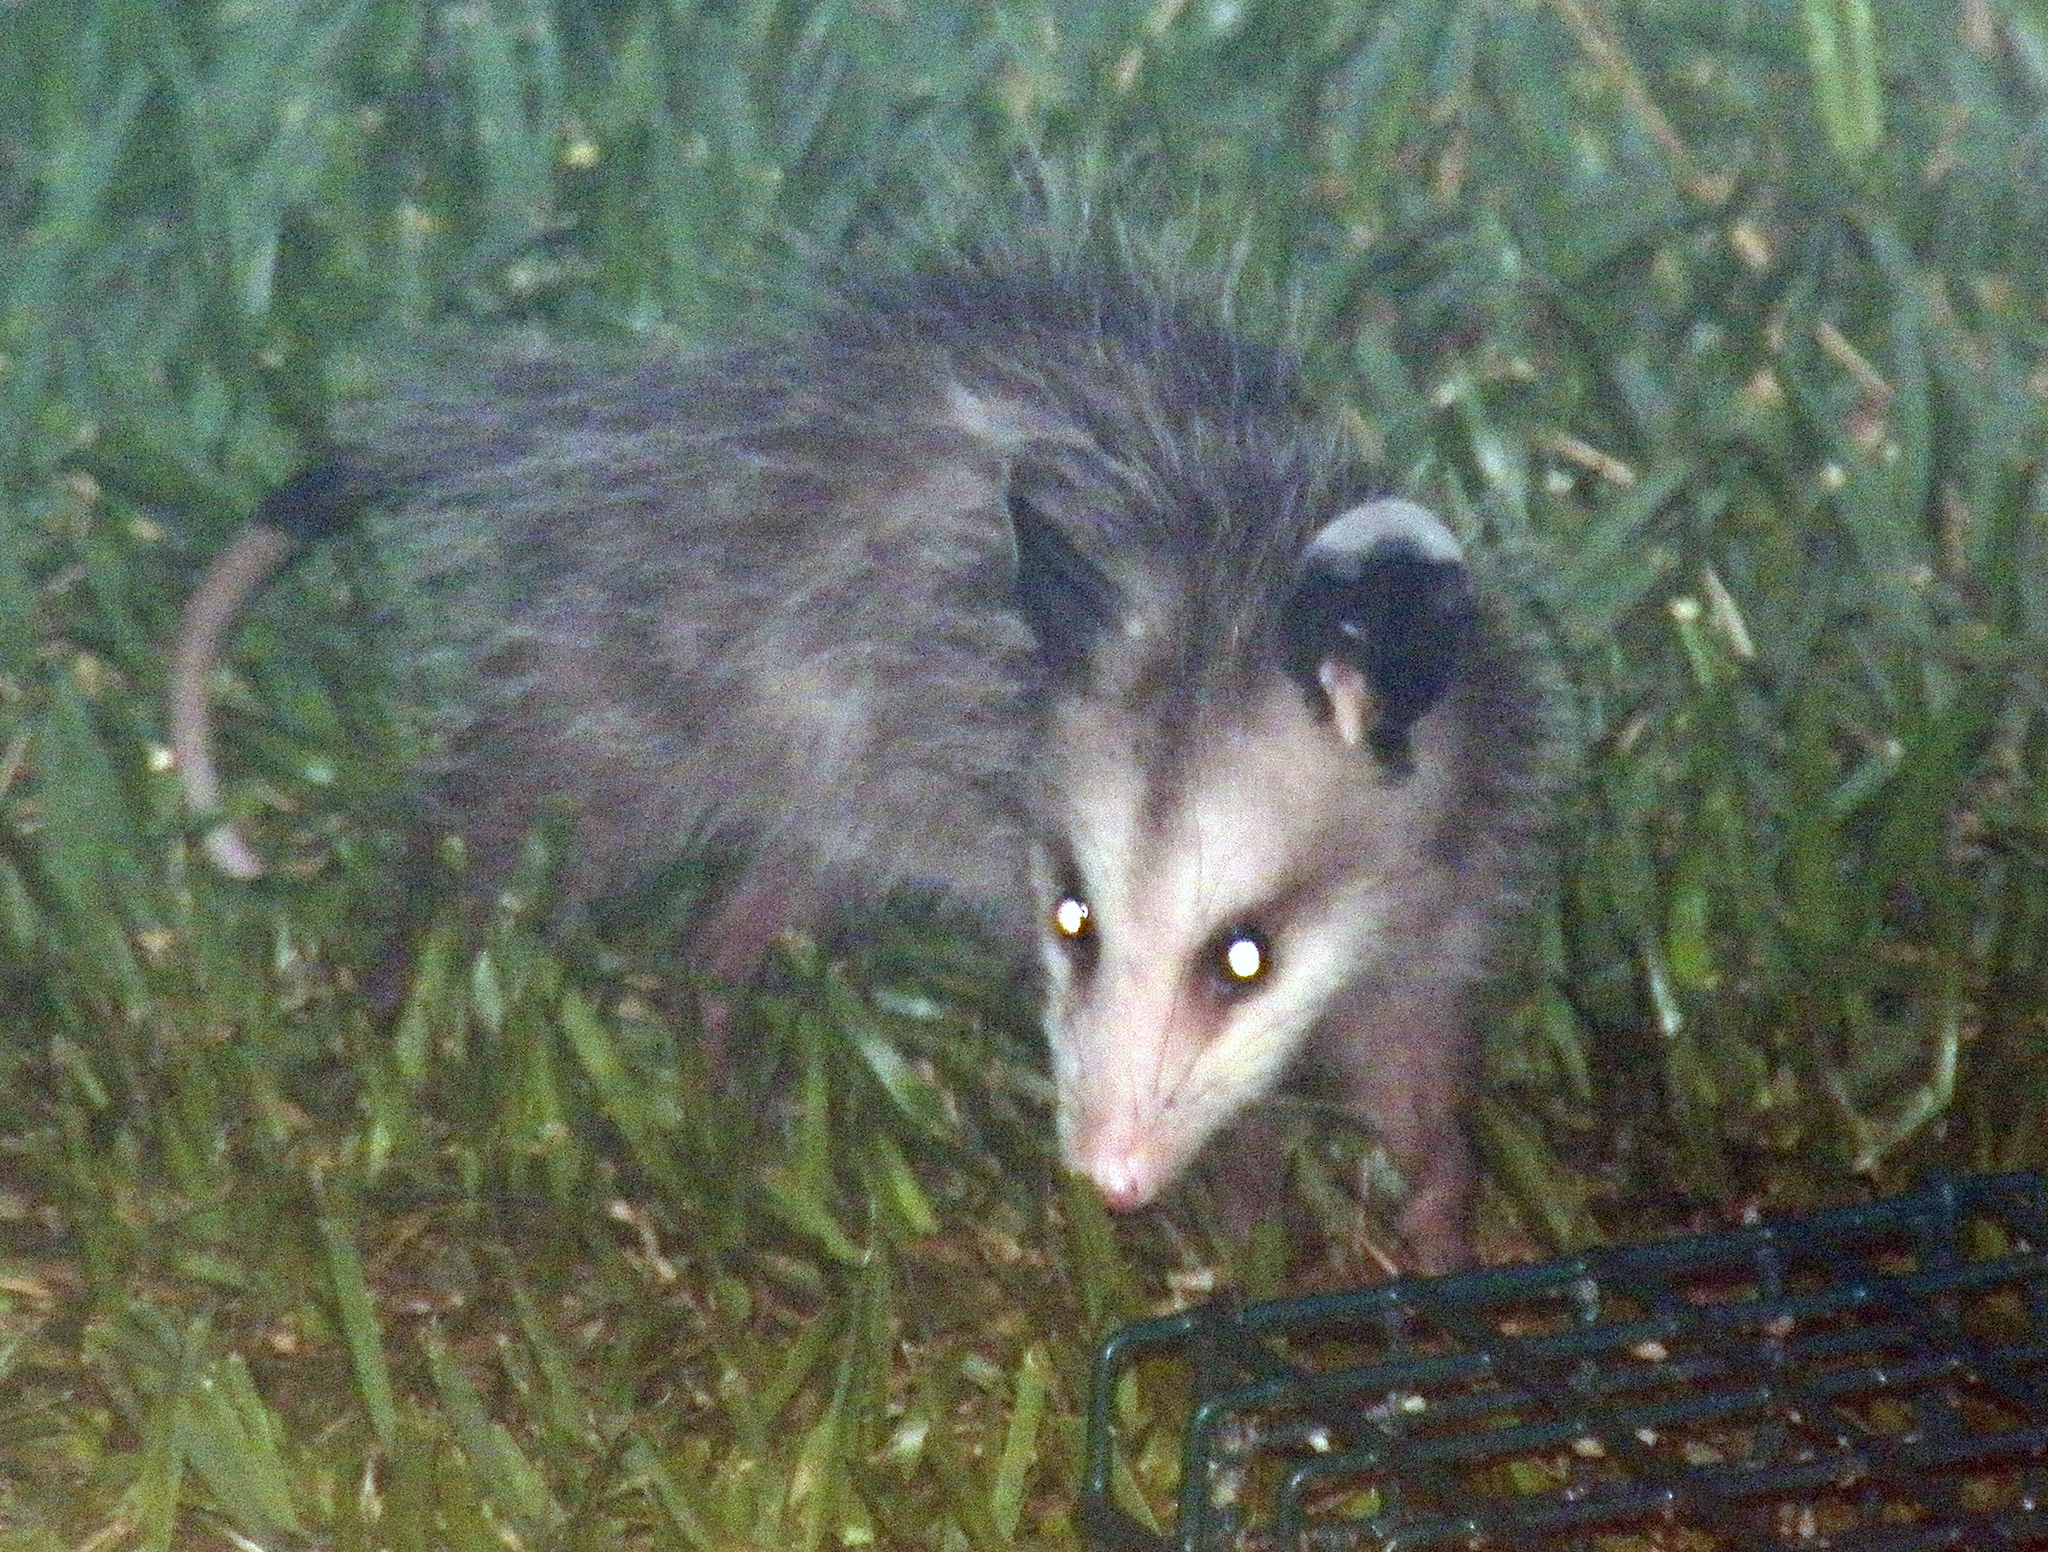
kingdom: Animalia
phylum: Chordata
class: Mammalia
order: Didelphimorphia
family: Didelphidae
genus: Didelphis
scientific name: Didelphis virginiana
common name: Virginia opossum
